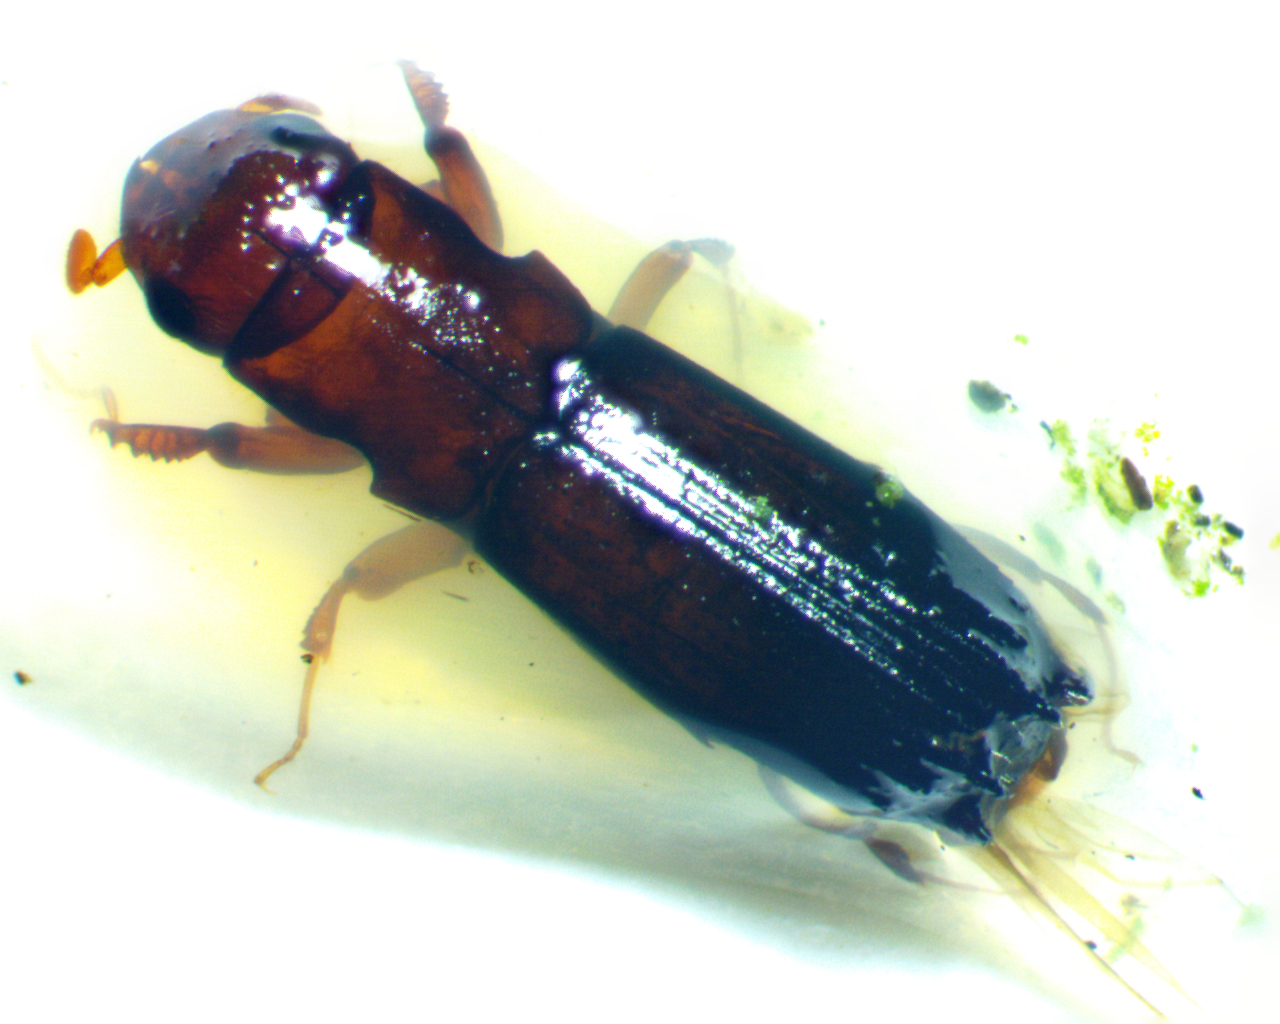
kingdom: Animalia
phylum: Arthropoda
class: Insecta
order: Coleoptera
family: Curculionidae
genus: Myoplatypus
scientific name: Myoplatypus flavicornis
